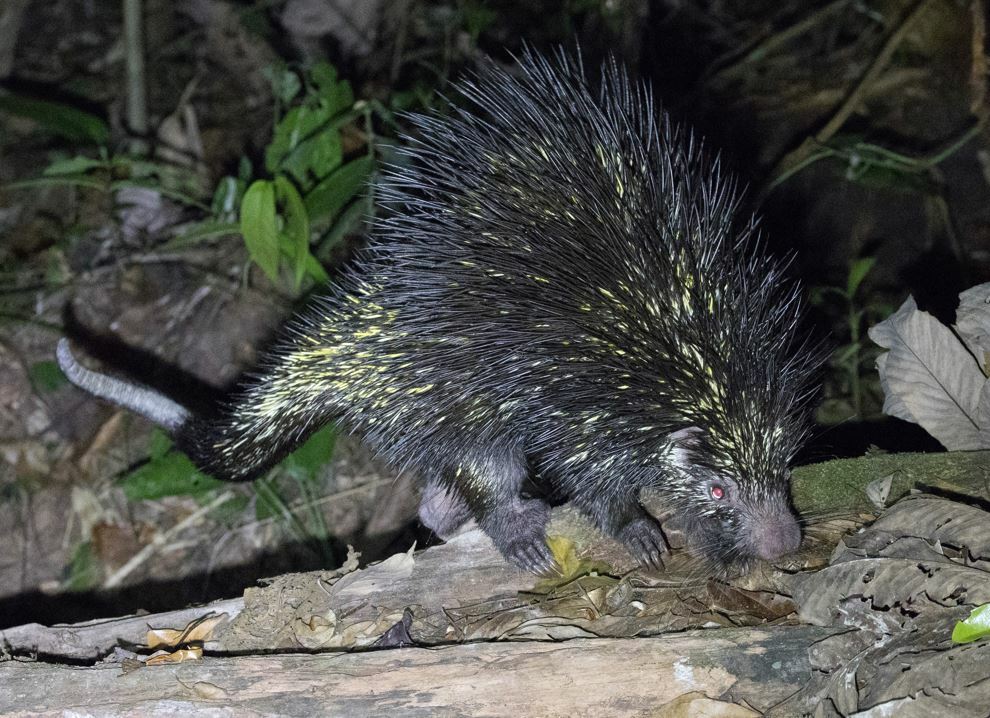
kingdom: Animalia
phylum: Chordata
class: Mammalia
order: Rodentia
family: Erethizontidae
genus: Coendou
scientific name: Coendou bicolor
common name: Bicolored-spined porcupine
